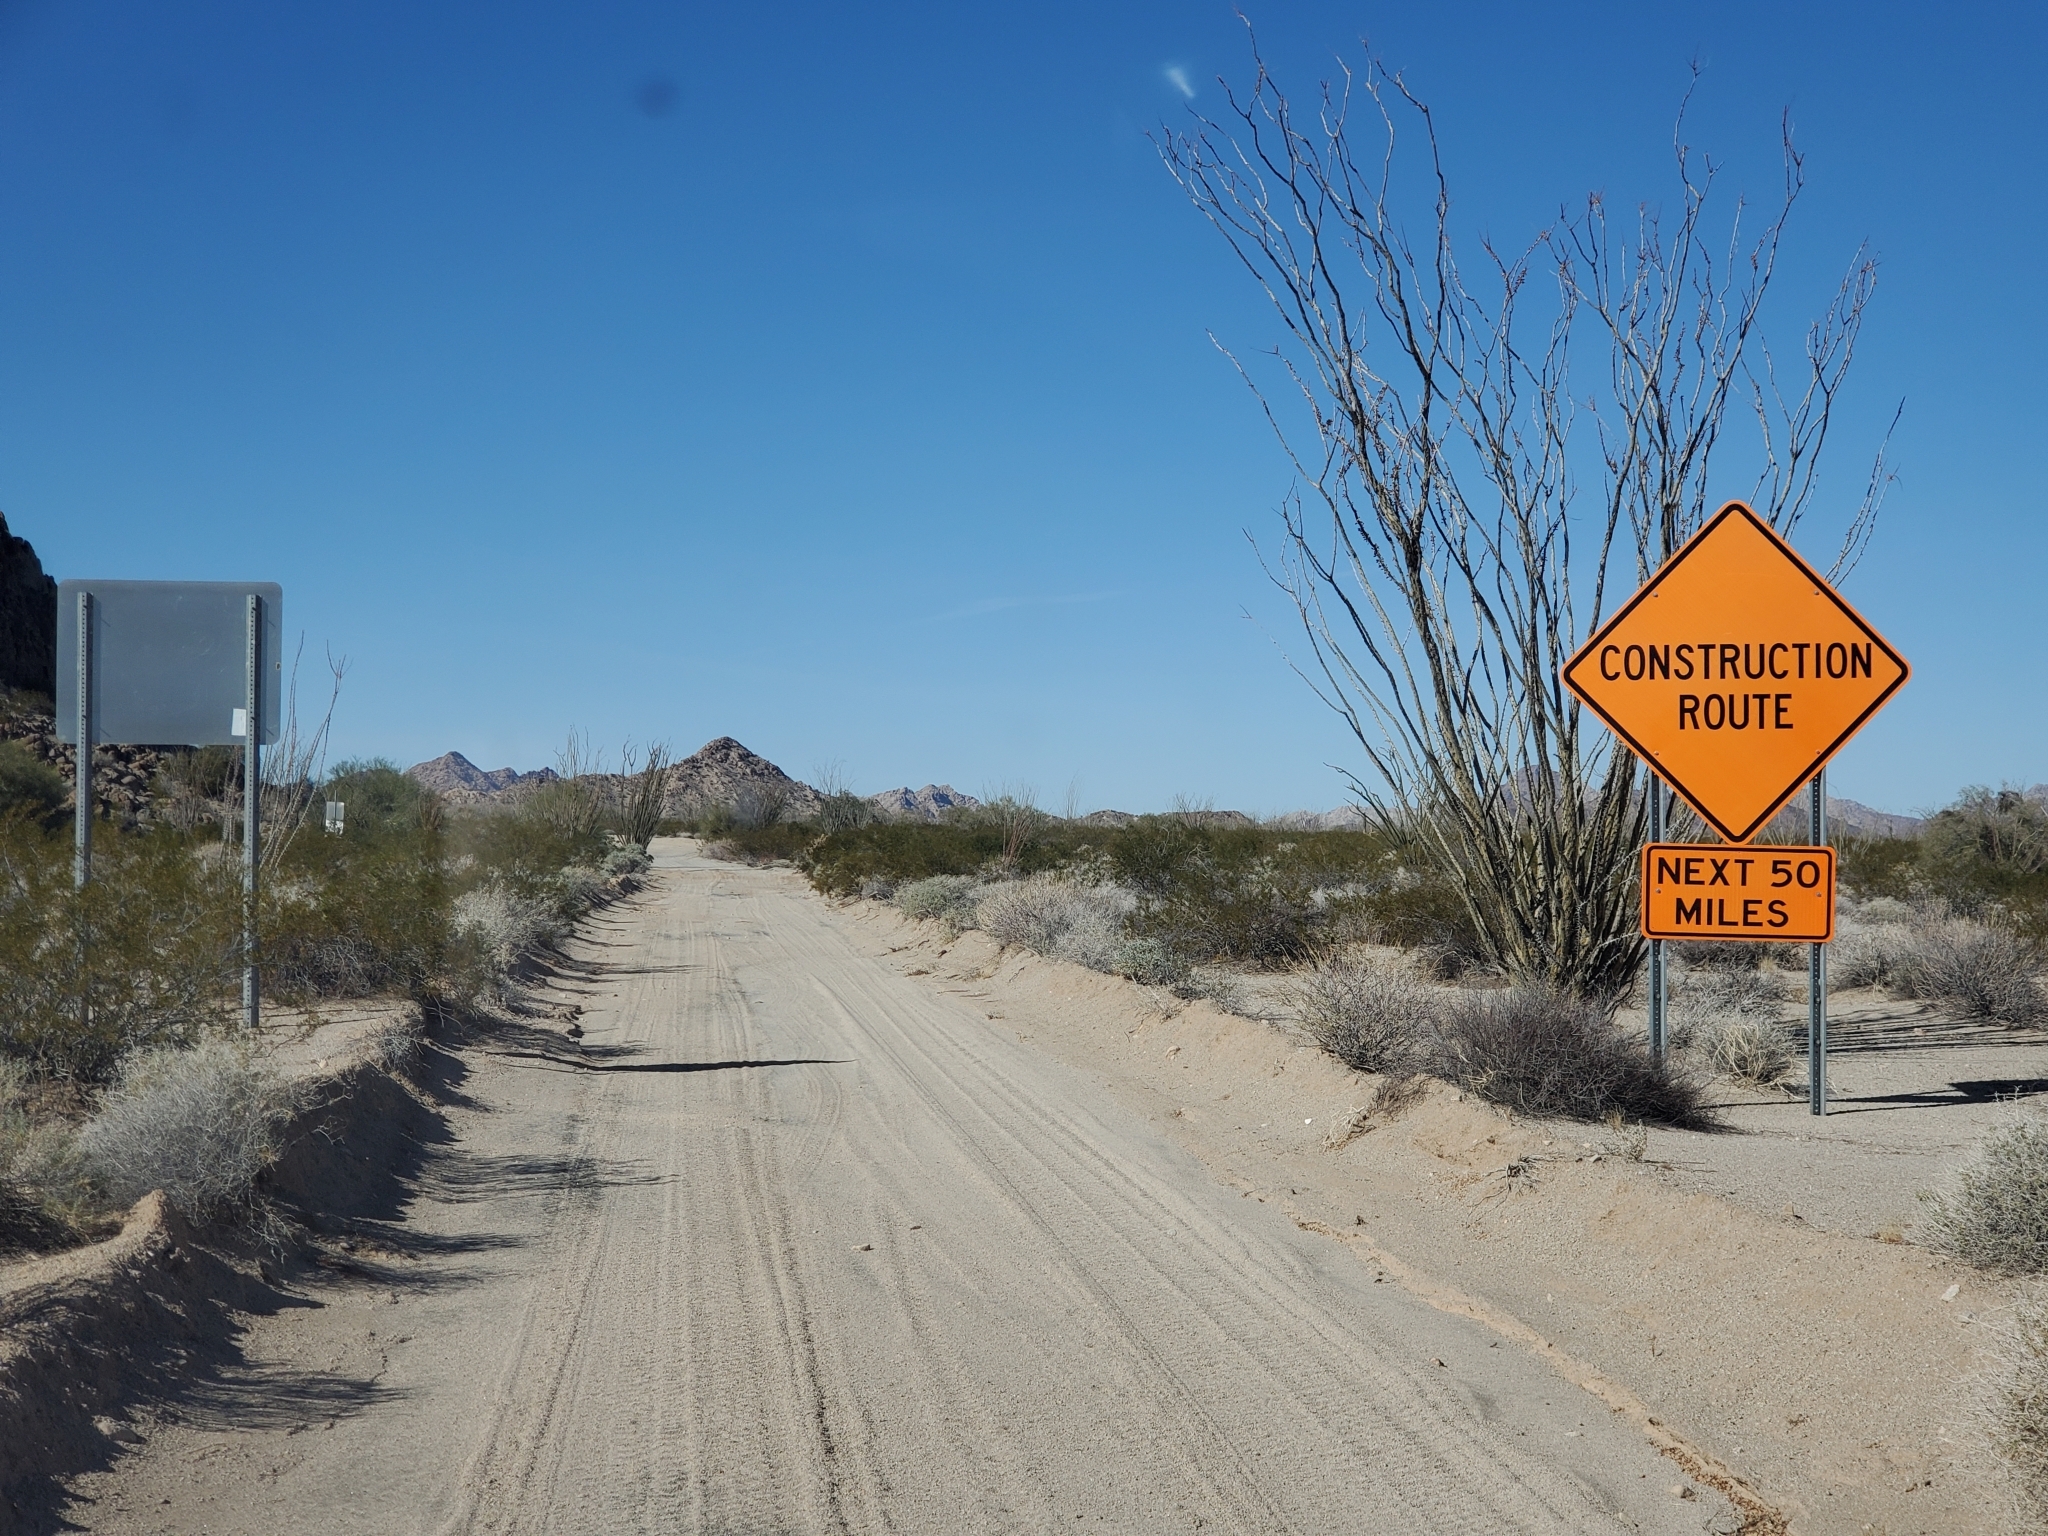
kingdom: Plantae
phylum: Tracheophyta
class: Magnoliopsida
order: Ericales
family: Fouquieriaceae
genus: Fouquieria
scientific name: Fouquieria splendens
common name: Vine-cactus
